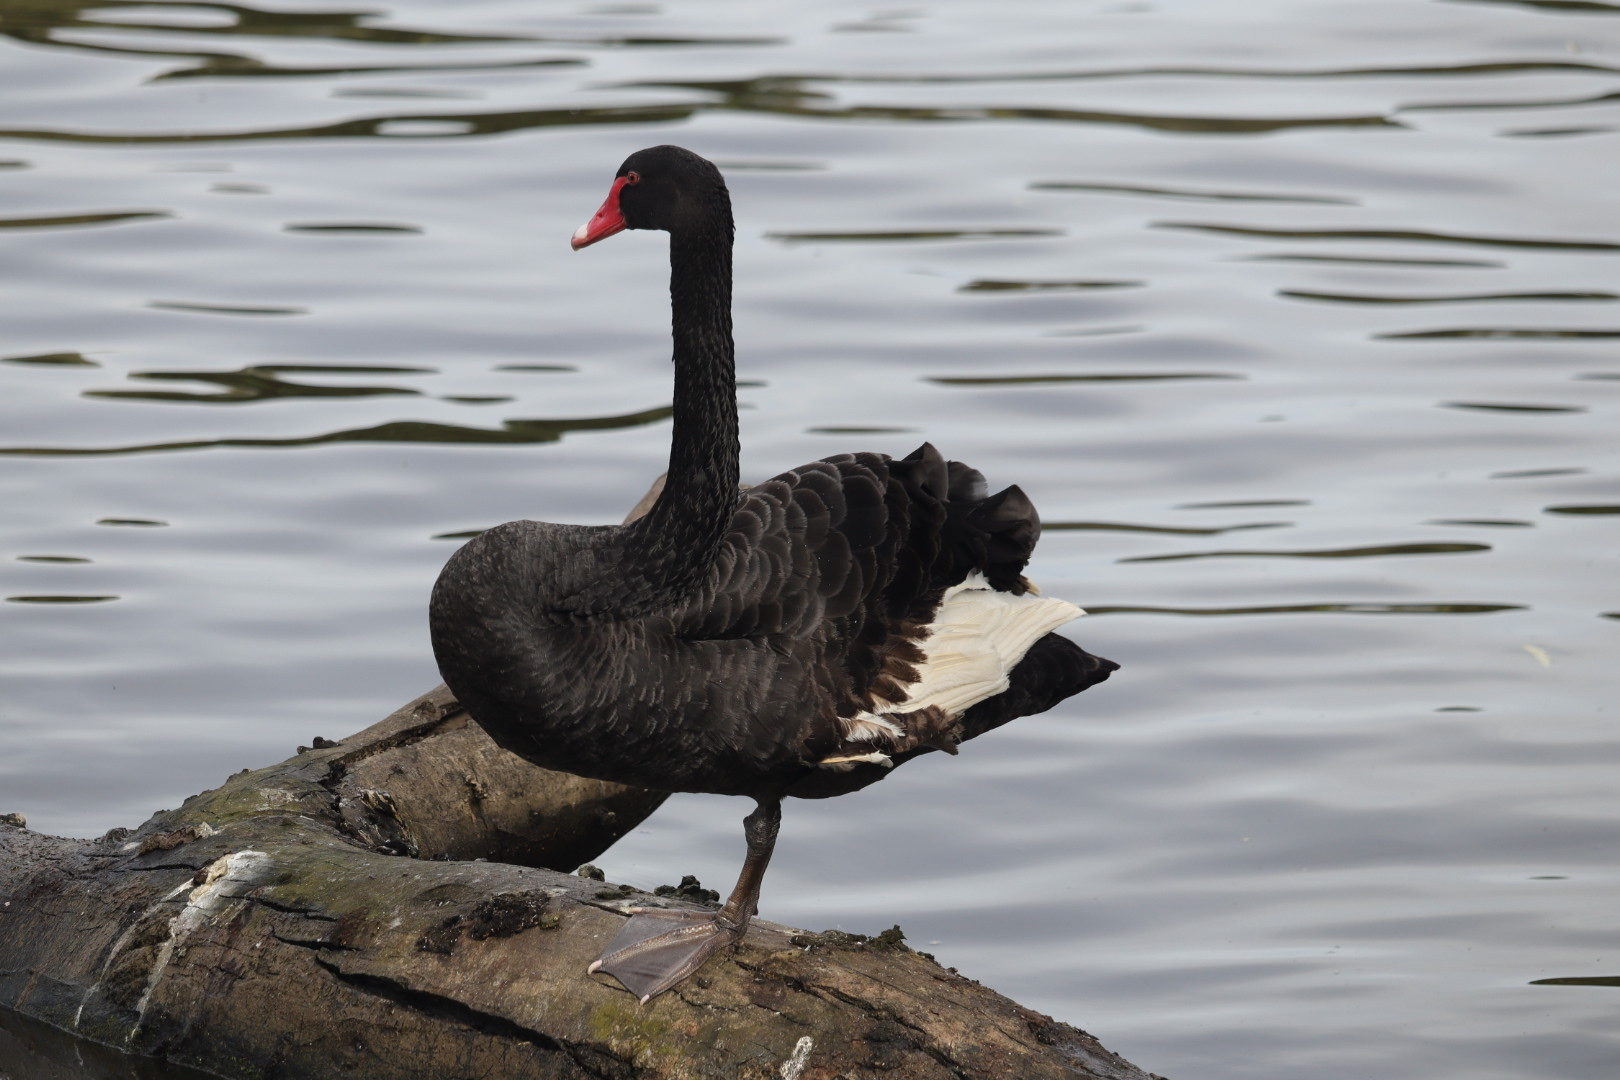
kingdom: Animalia
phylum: Chordata
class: Aves
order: Anseriformes
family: Anatidae
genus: Cygnus
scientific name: Cygnus atratus
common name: Black swan
